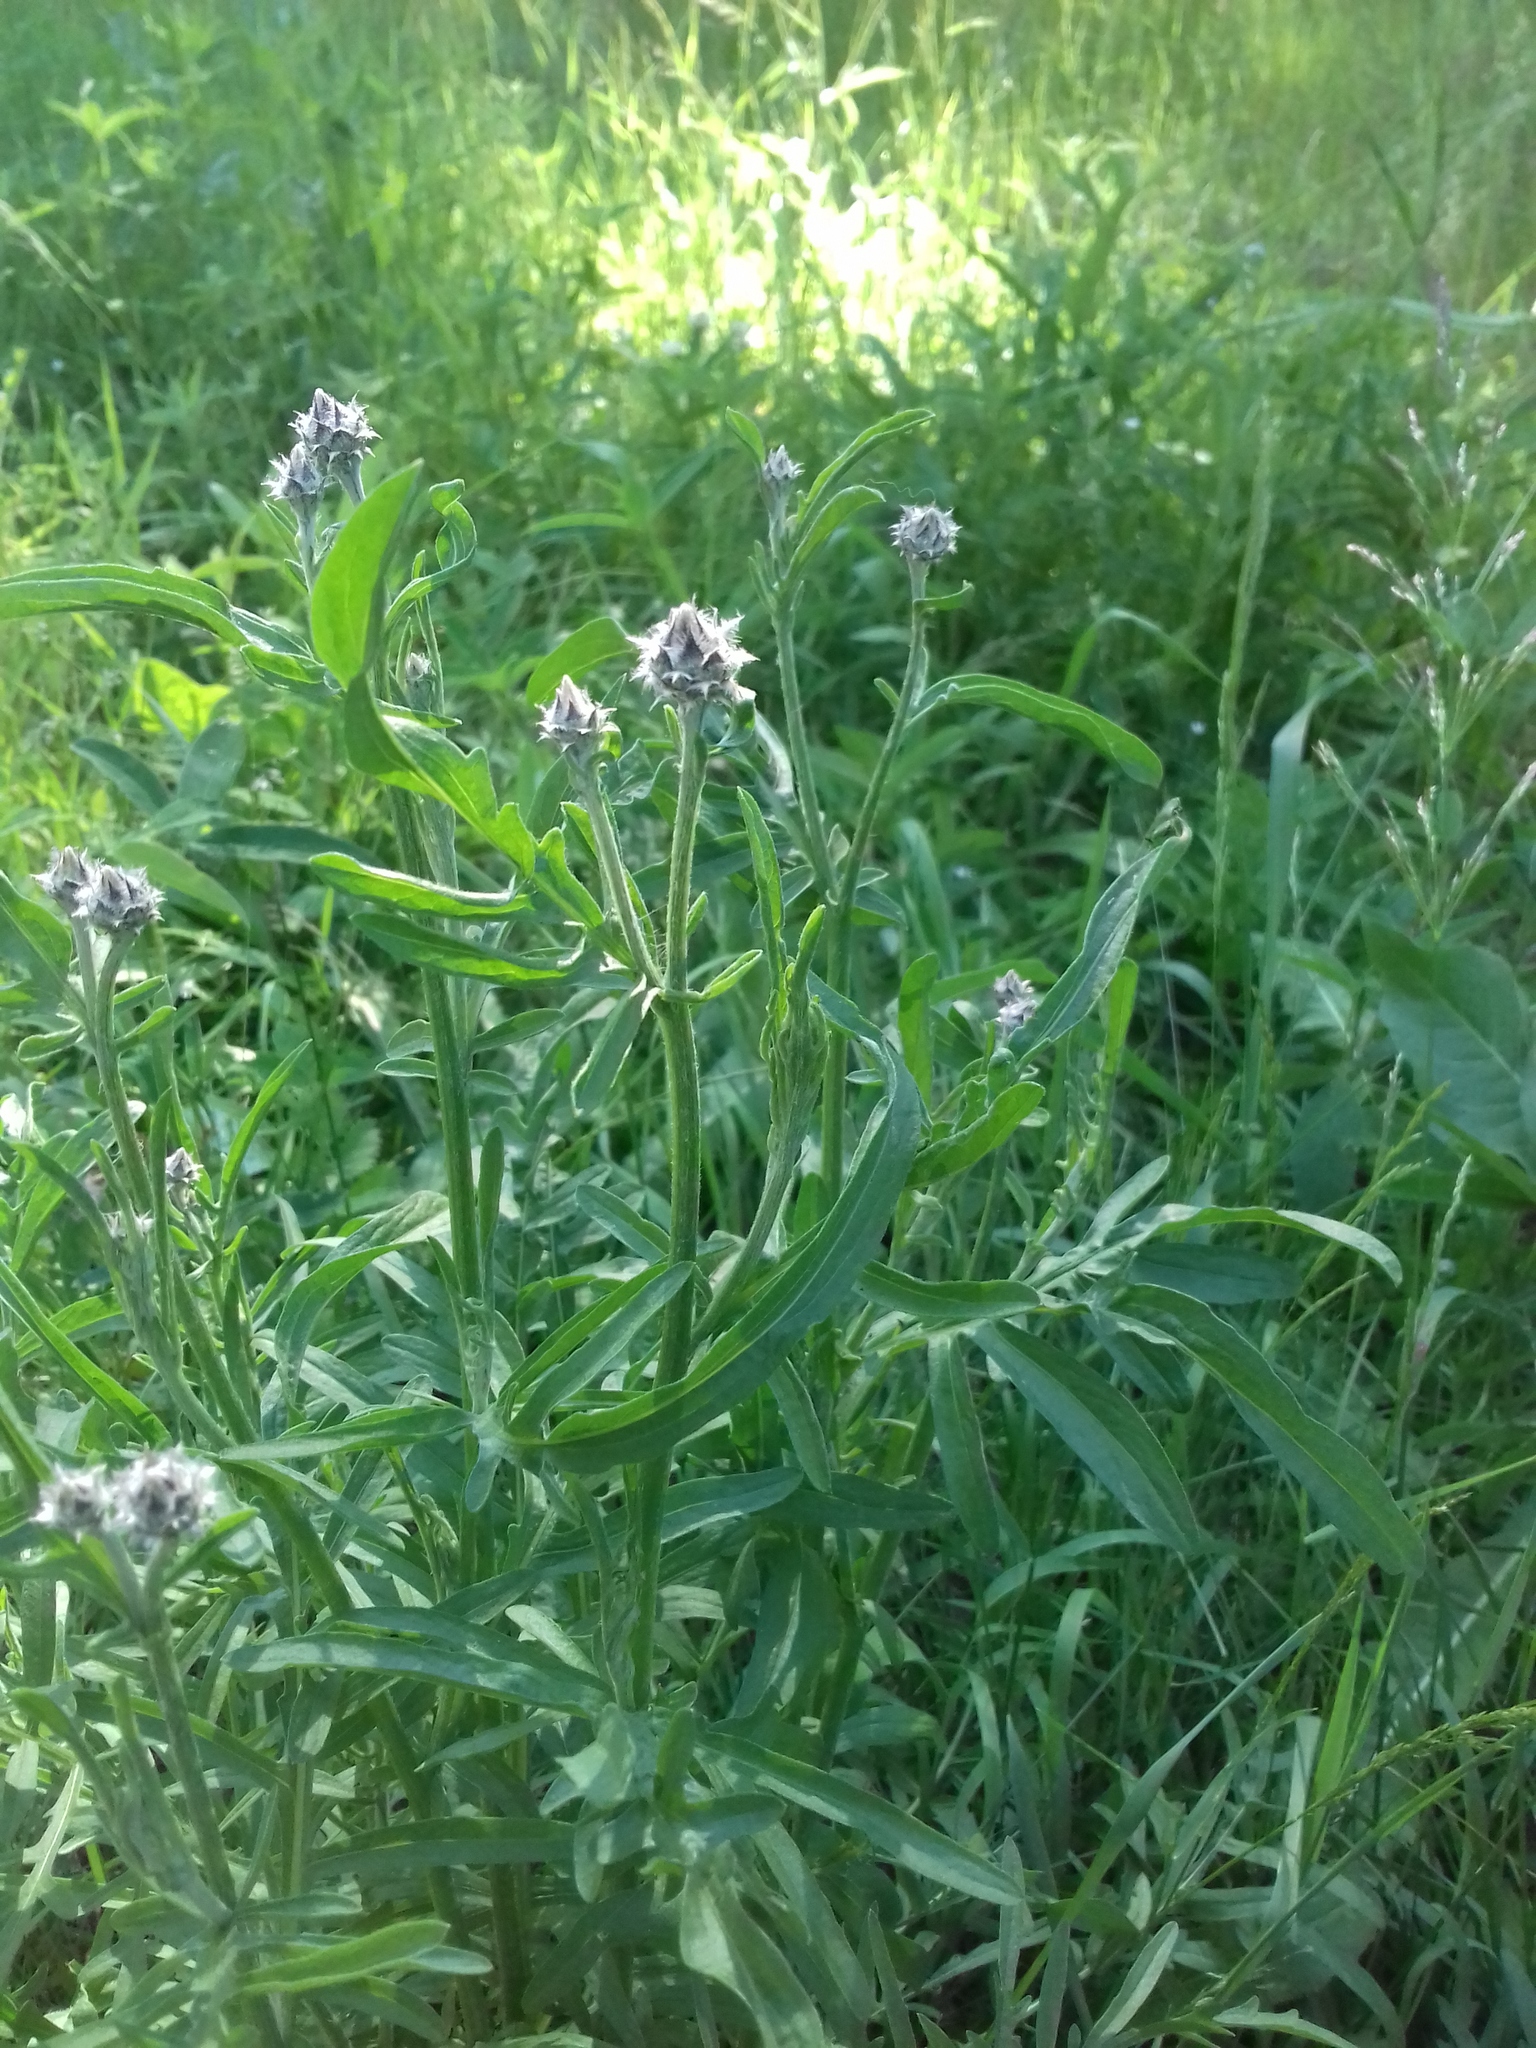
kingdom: Plantae
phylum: Tracheophyta
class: Magnoliopsida
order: Asterales
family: Asteraceae
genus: Centaurea
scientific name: Centaurea scabiosa
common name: Greater knapweed
